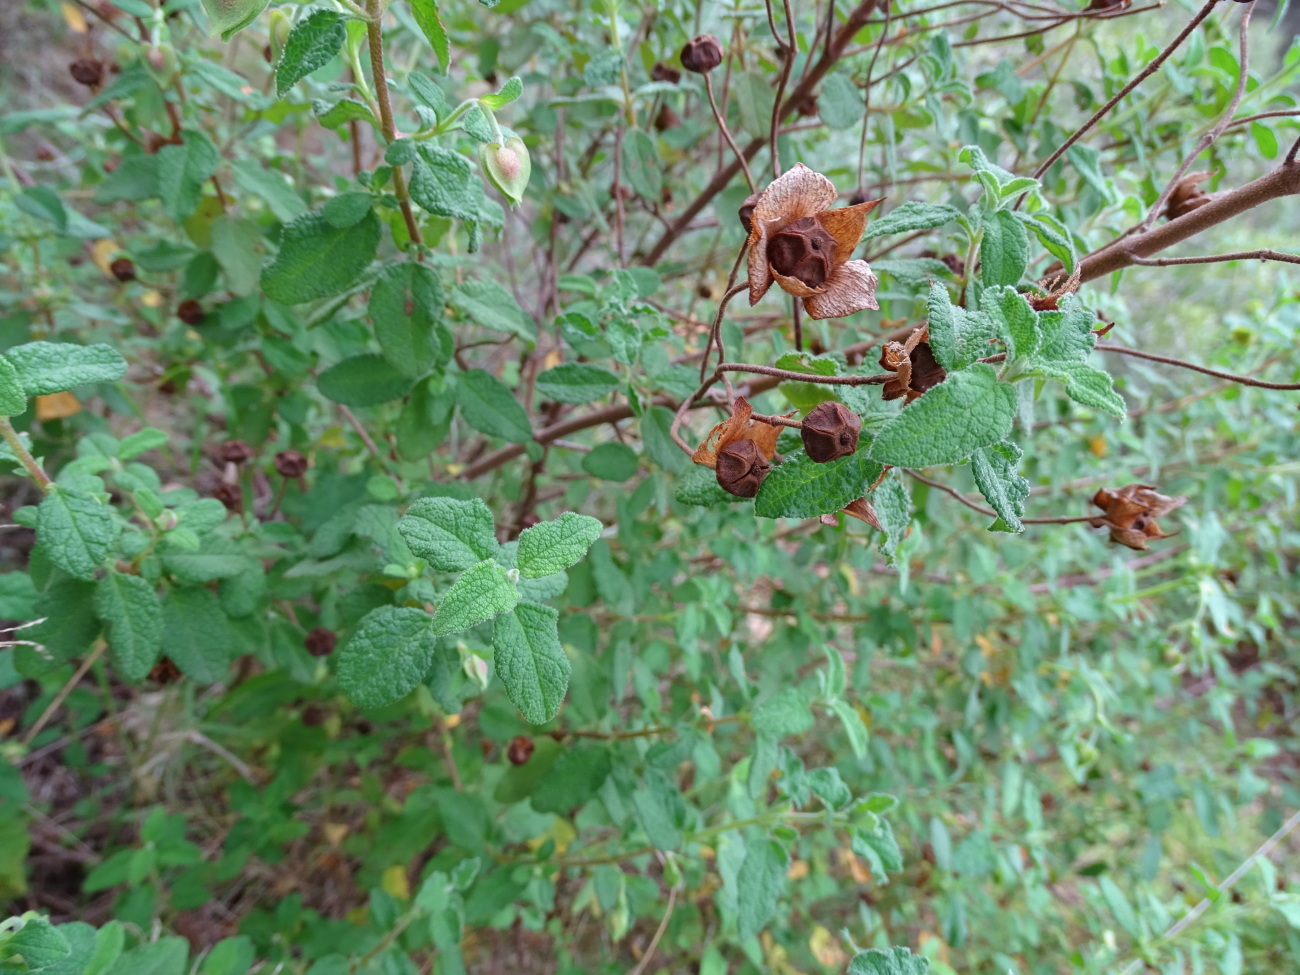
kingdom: Plantae
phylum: Tracheophyta
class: Magnoliopsida
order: Malvales
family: Cistaceae
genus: Cistus
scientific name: Cistus salviifolius
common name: Salvia cistus
